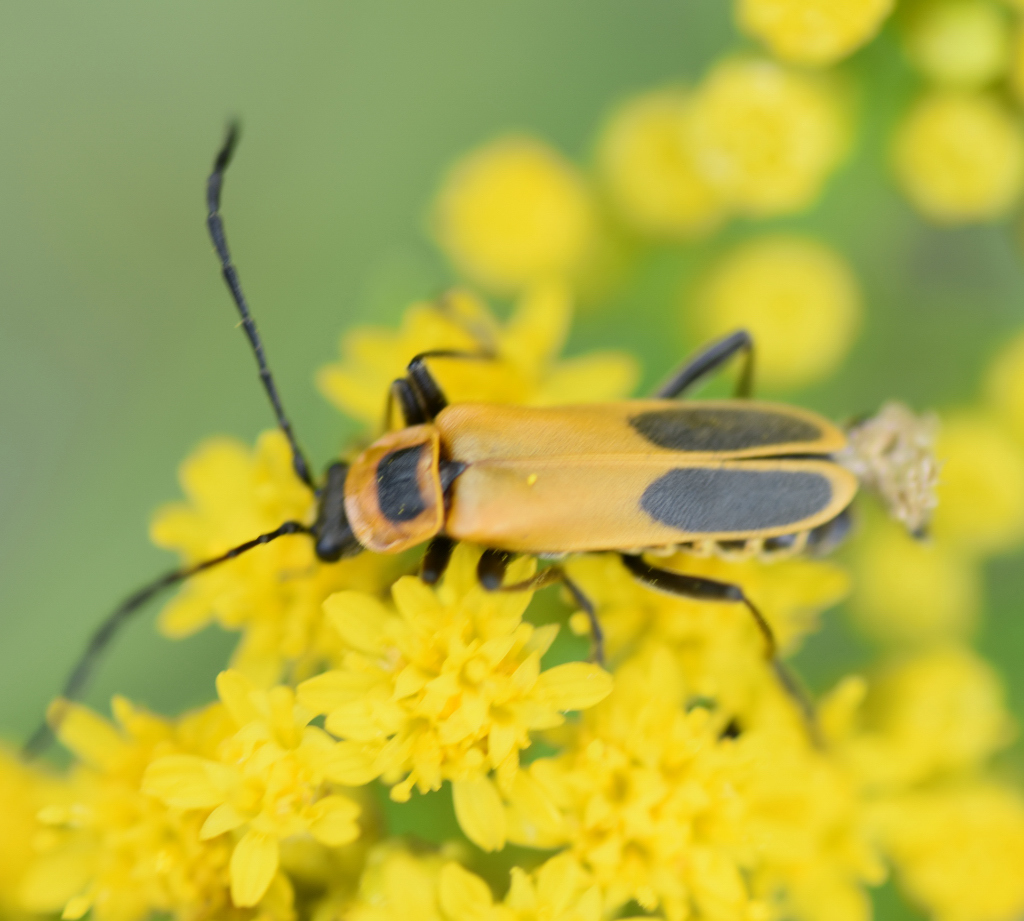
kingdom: Animalia
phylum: Arthropoda
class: Insecta
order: Coleoptera
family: Cantharidae
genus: Chauliognathus
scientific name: Chauliognathus pensylvanicus
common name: Goldenrod soldier beetle
